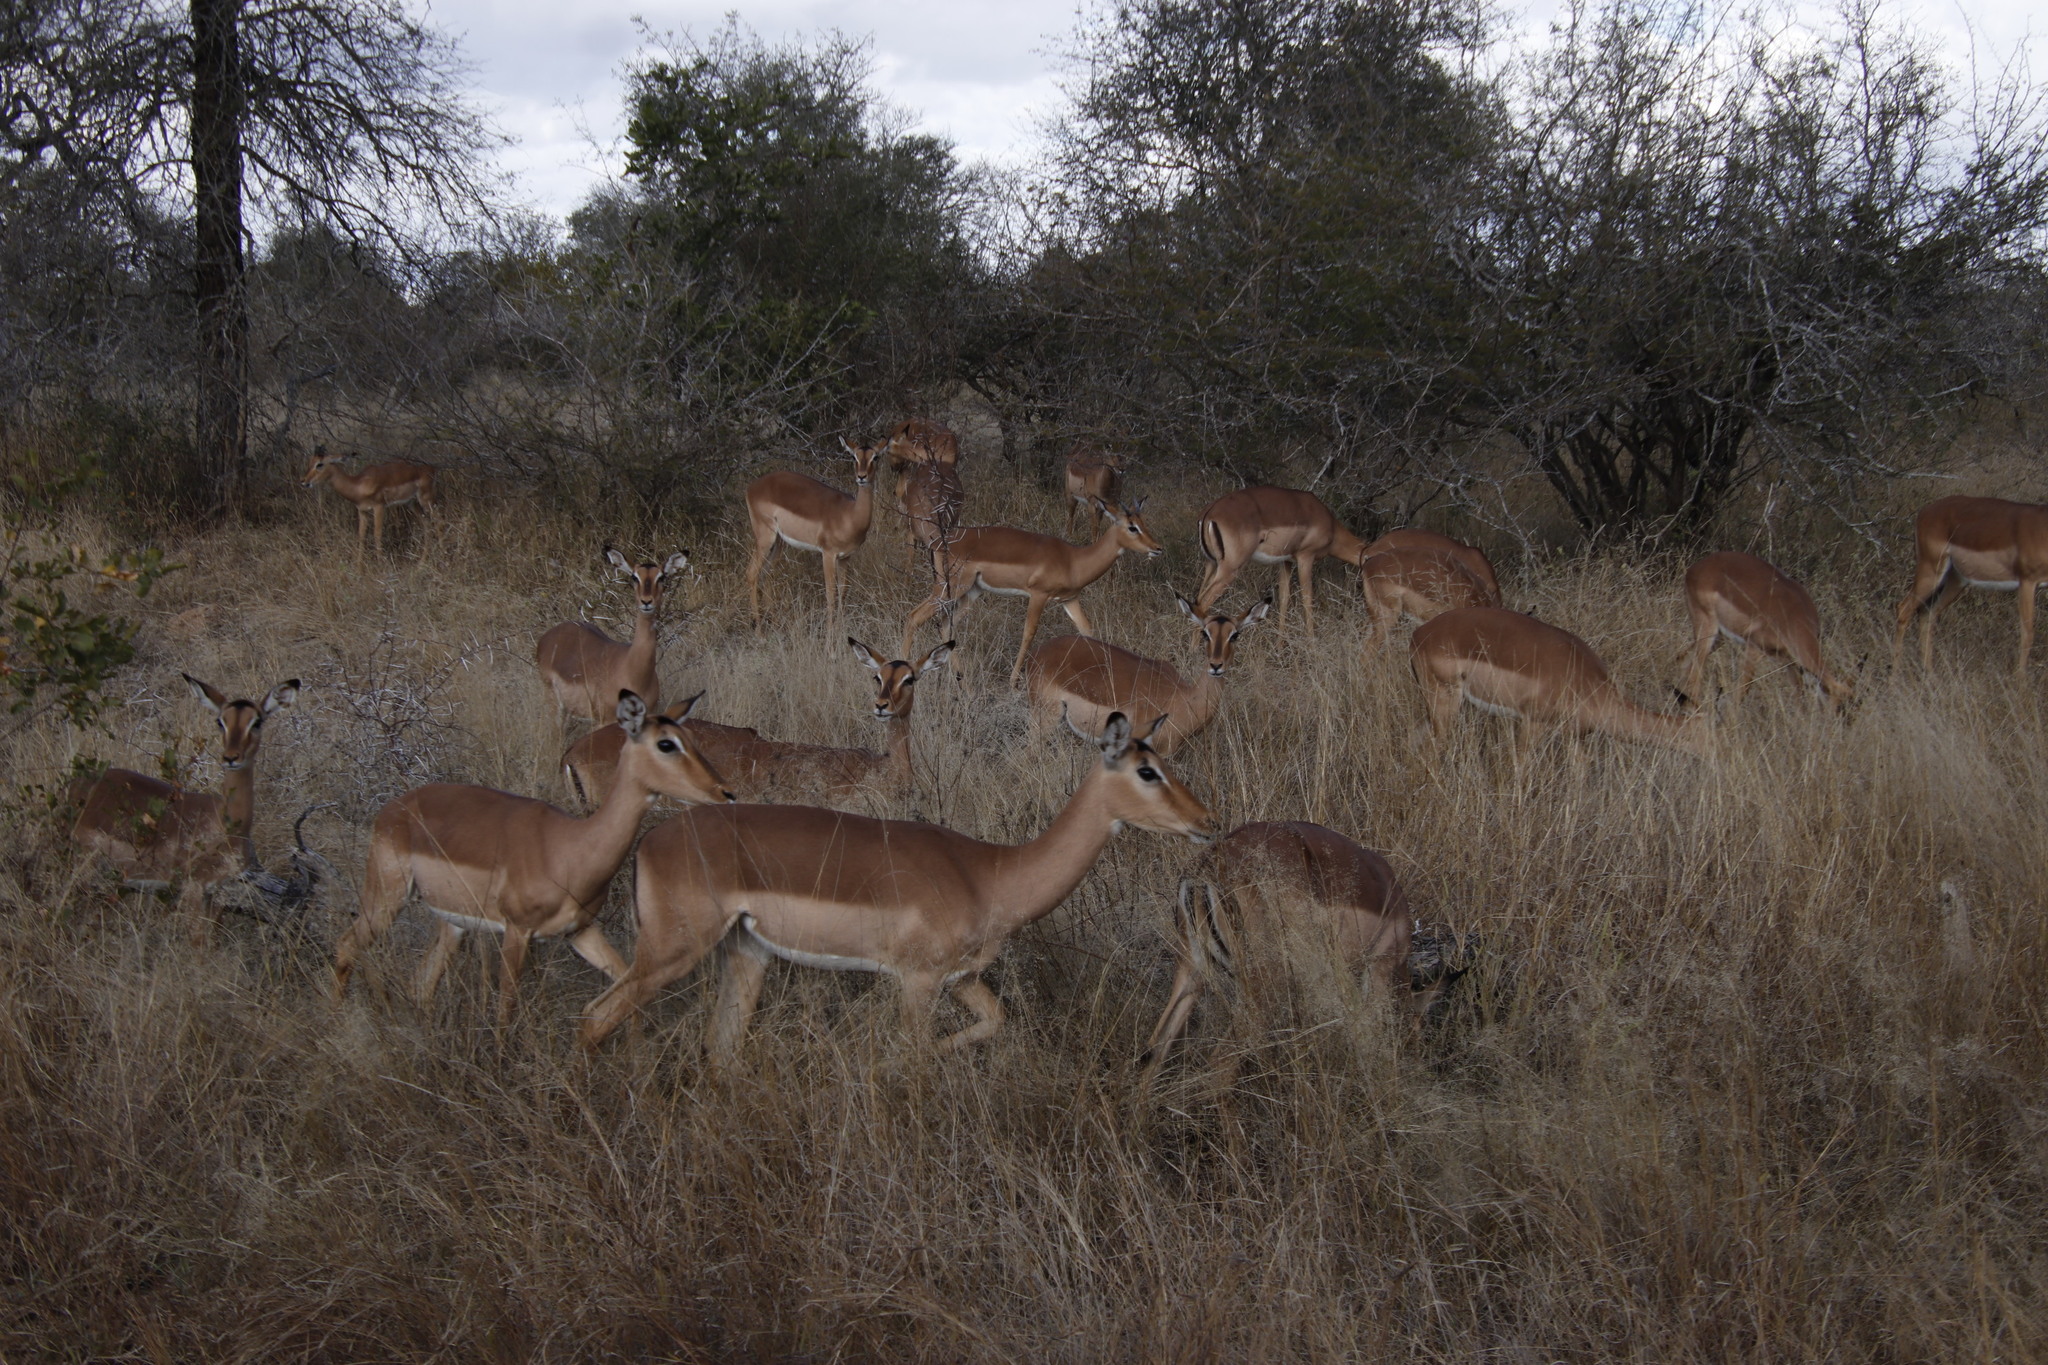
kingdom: Animalia
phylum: Chordata
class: Mammalia
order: Artiodactyla
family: Bovidae
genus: Aepyceros
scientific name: Aepyceros melampus
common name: Impala
